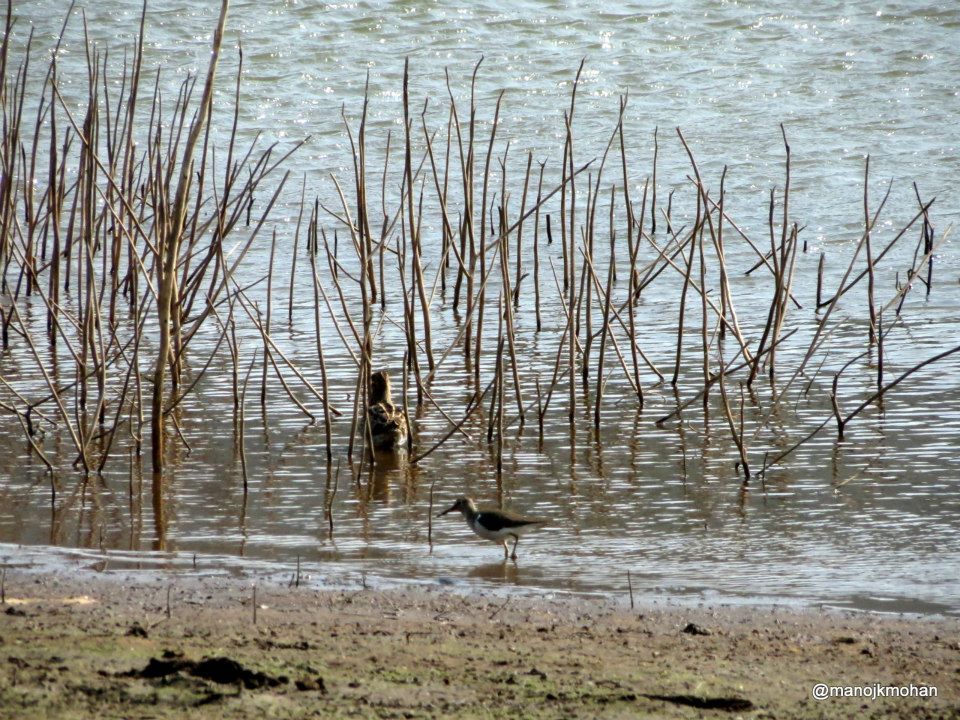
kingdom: Animalia
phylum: Chordata
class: Aves
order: Charadriiformes
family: Scolopacidae
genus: Actitis
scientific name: Actitis hypoleucos
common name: Common sandpiper
